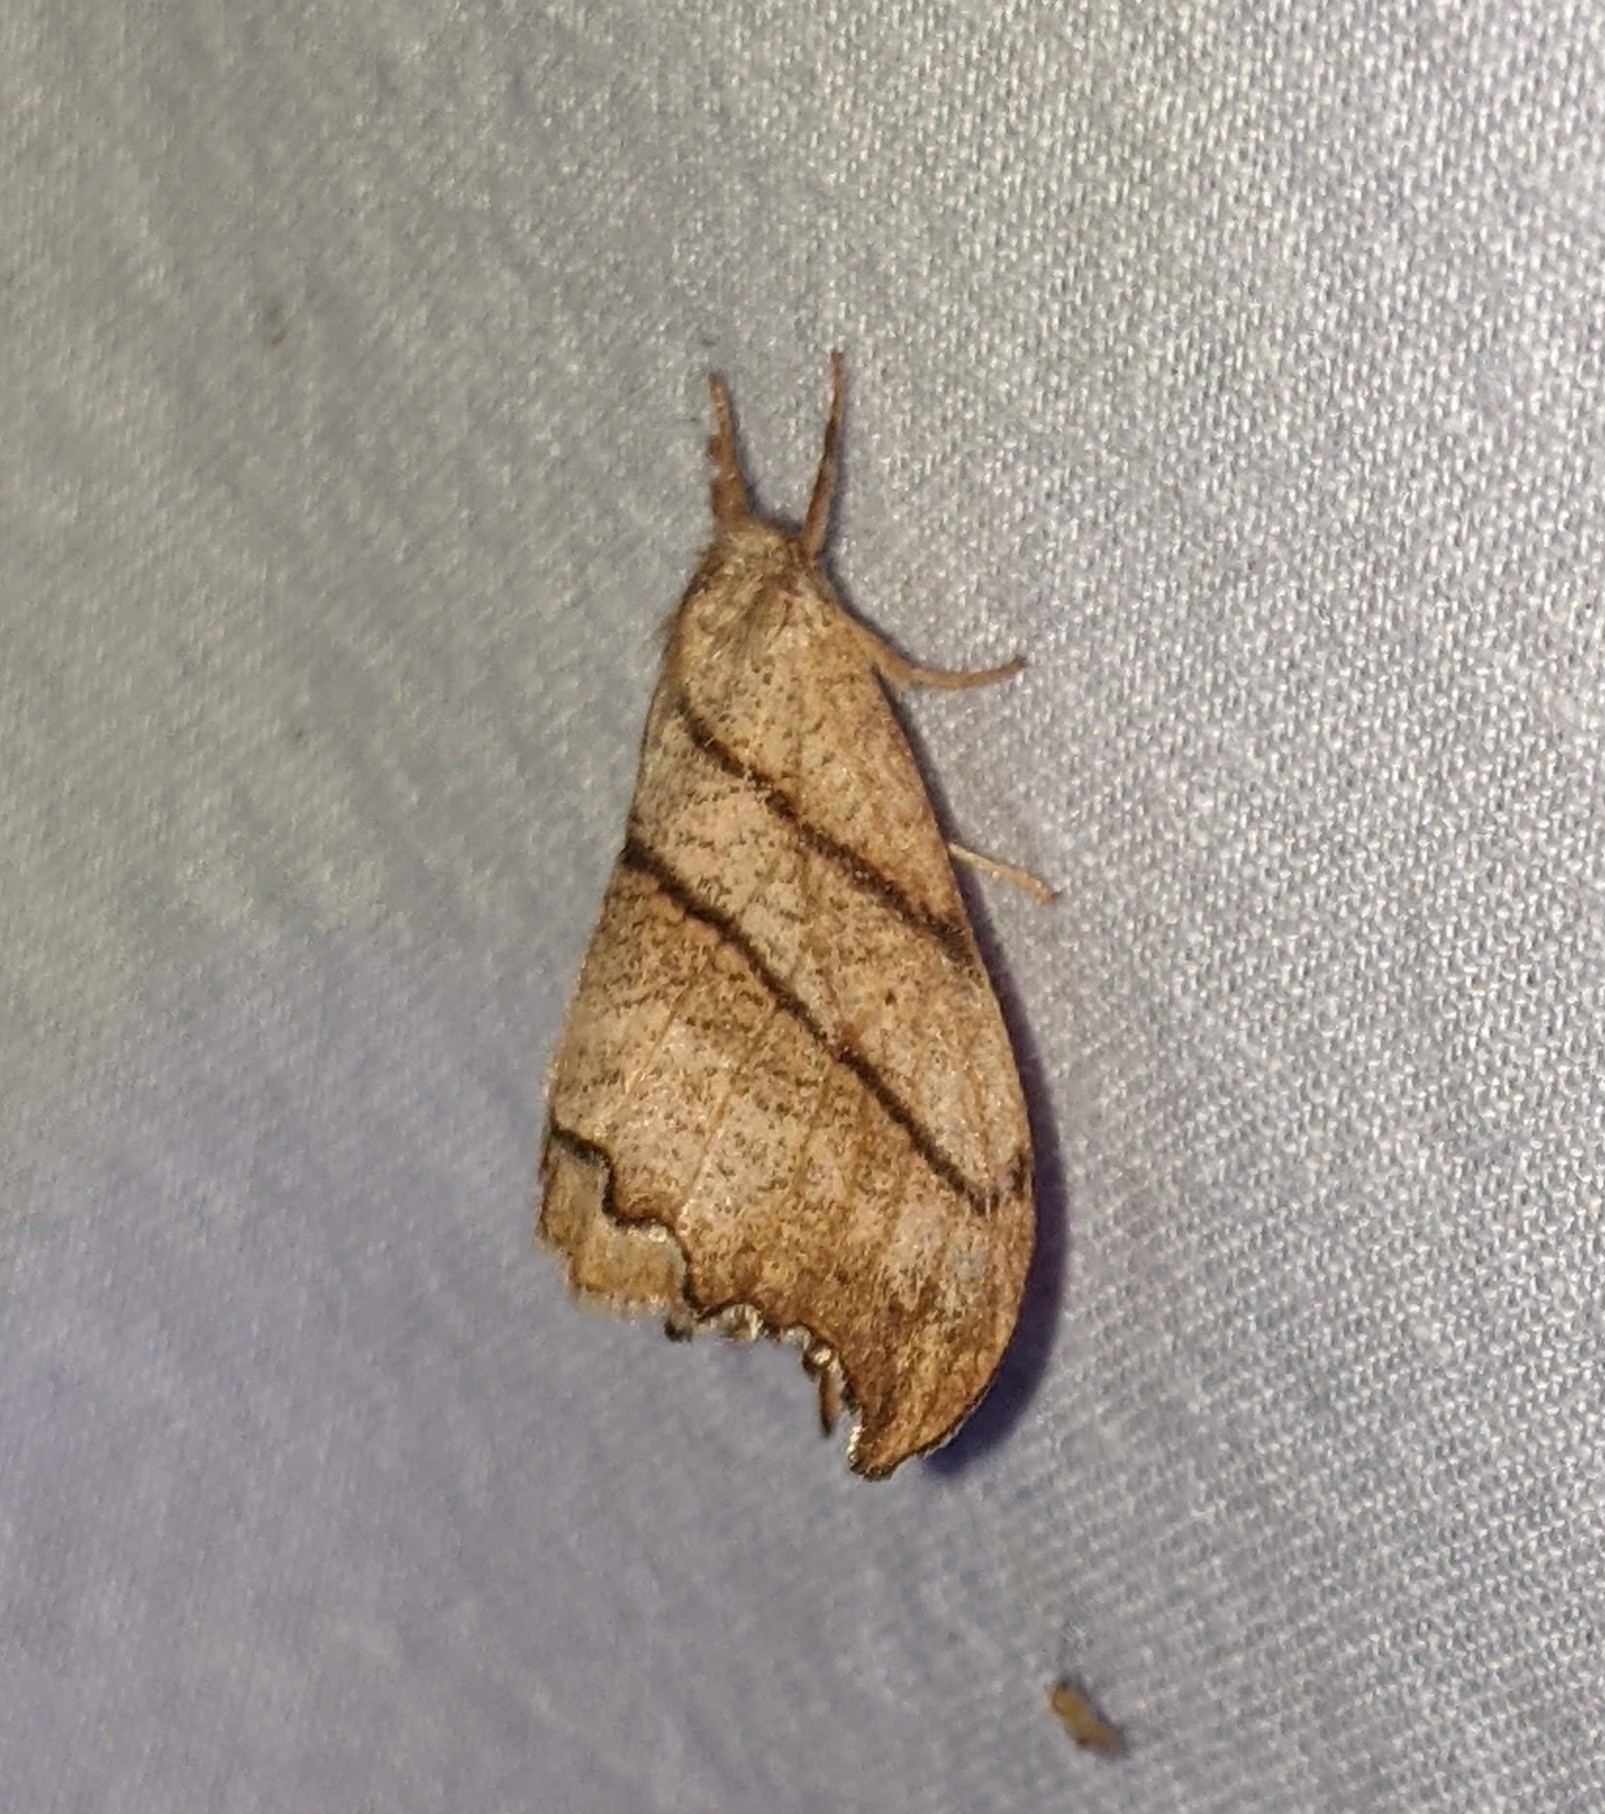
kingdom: Animalia
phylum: Arthropoda
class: Insecta
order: Lepidoptera
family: Drepanidae
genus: Falcaria
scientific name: Falcaria bilineata
